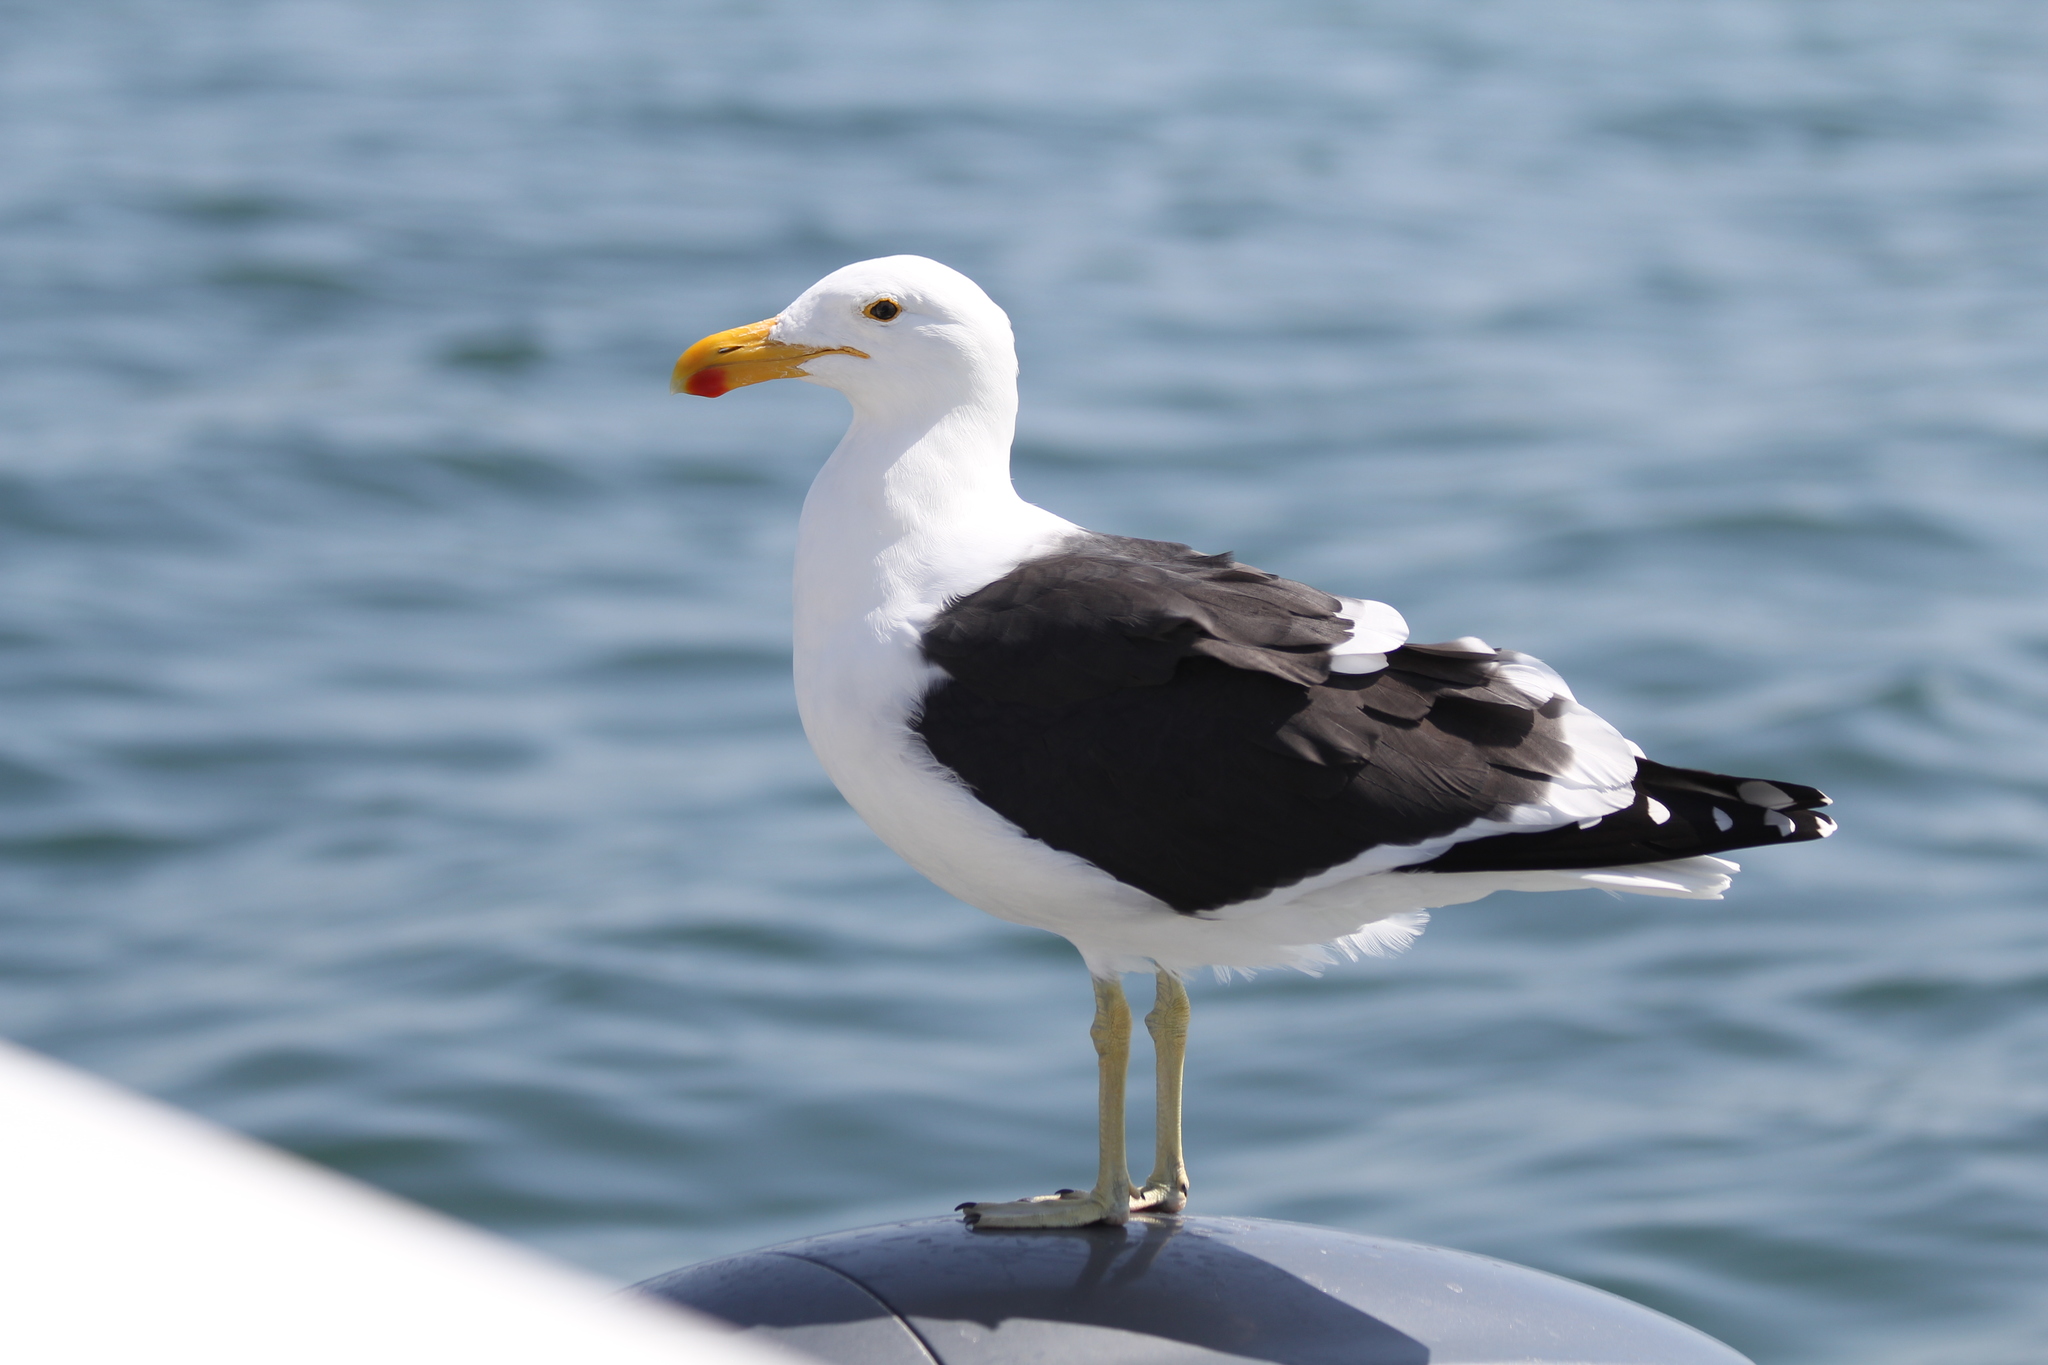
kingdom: Animalia
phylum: Chordata
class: Aves
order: Charadriiformes
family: Laridae
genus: Larus
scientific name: Larus dominicanus
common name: Kelp gull
